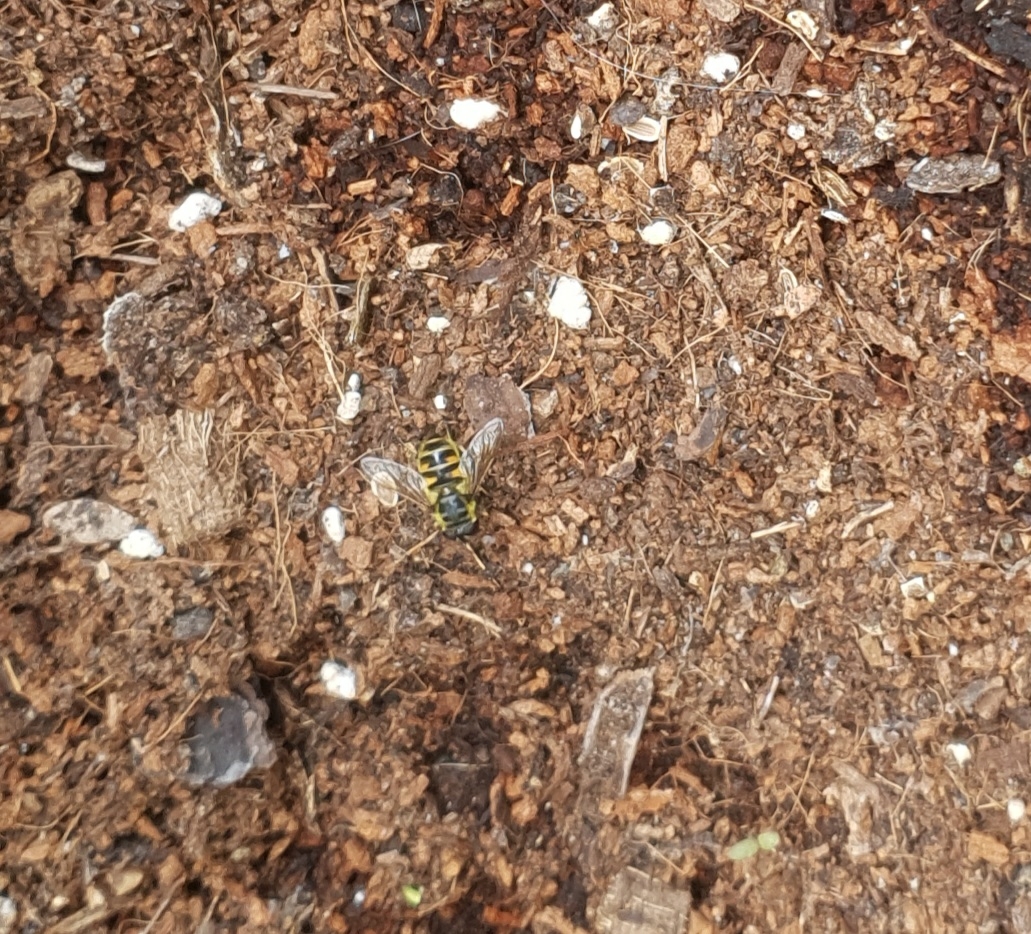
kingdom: Animalia
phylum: Arthropoda
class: Insecta
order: Diptera
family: Syrphidae
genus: Myathropa
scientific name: Myathropa florea
